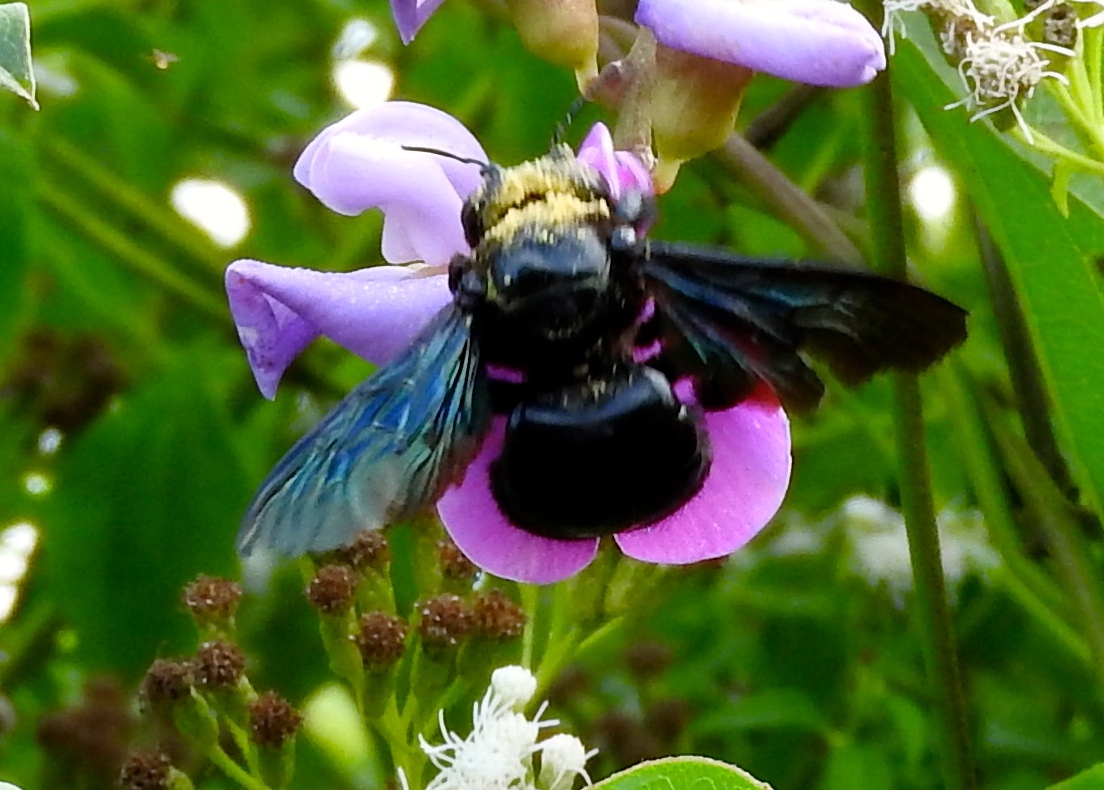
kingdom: Animalia
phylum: Arthropoda
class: Insecta
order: Hymenoptera
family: Apidae
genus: Xylocopa
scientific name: Xylocopa fimbriata
